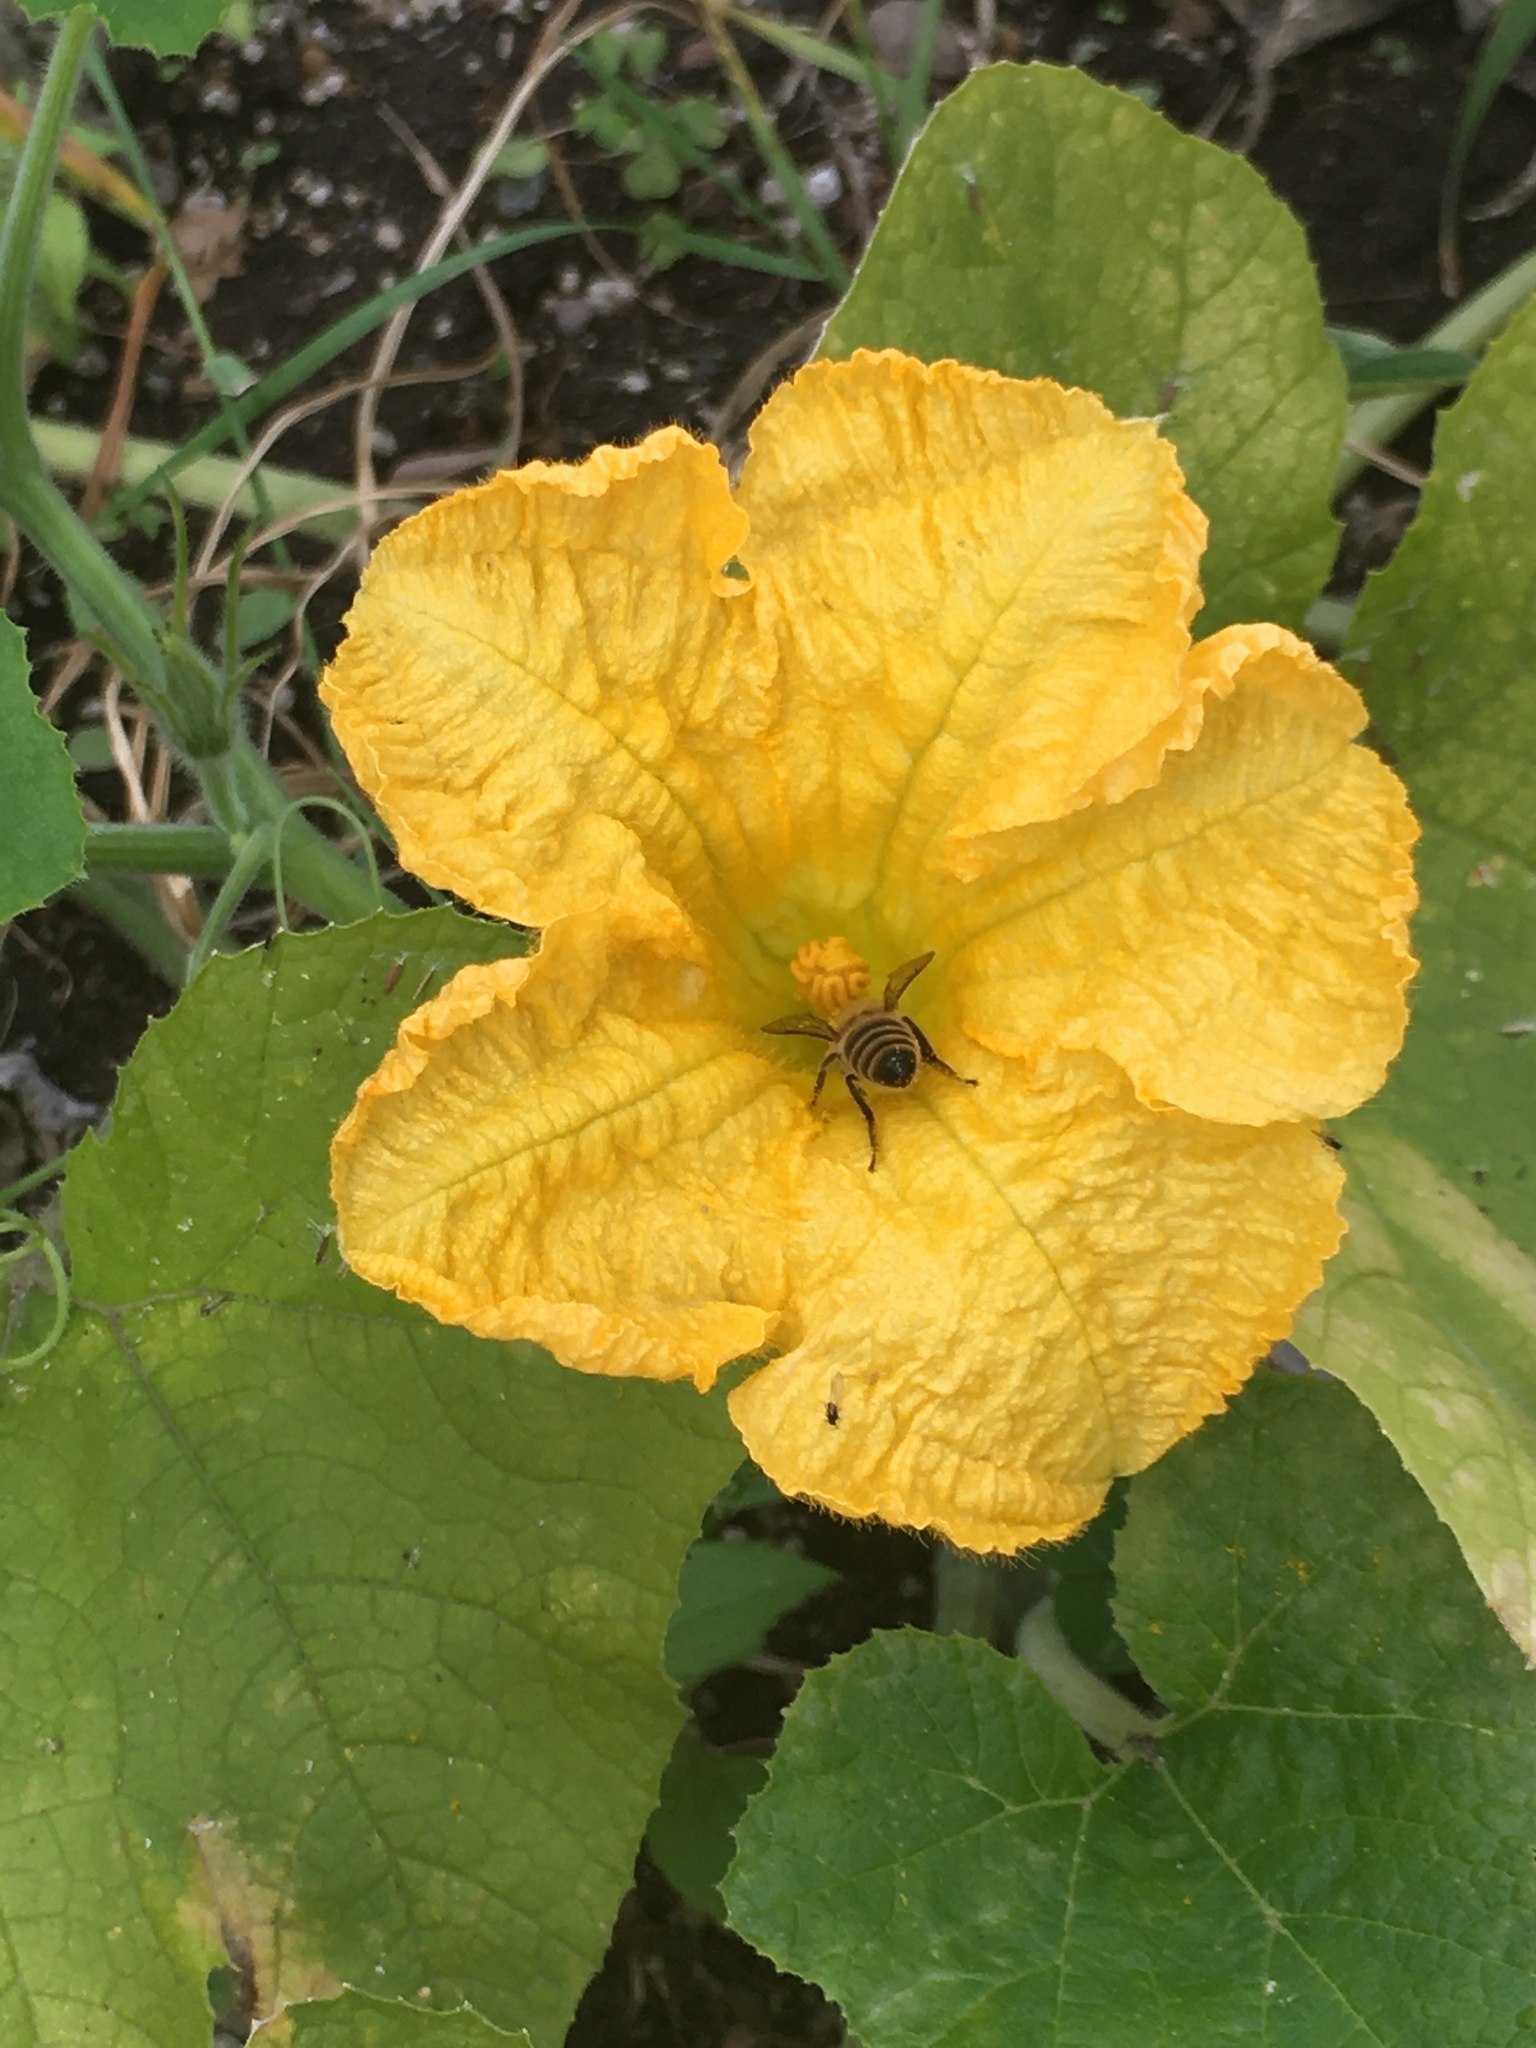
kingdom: Animalia
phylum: Arthropoda
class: Insecta
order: Hymenoptera
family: Apidae
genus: Apis
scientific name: Apis mellifera
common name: Honey bee
